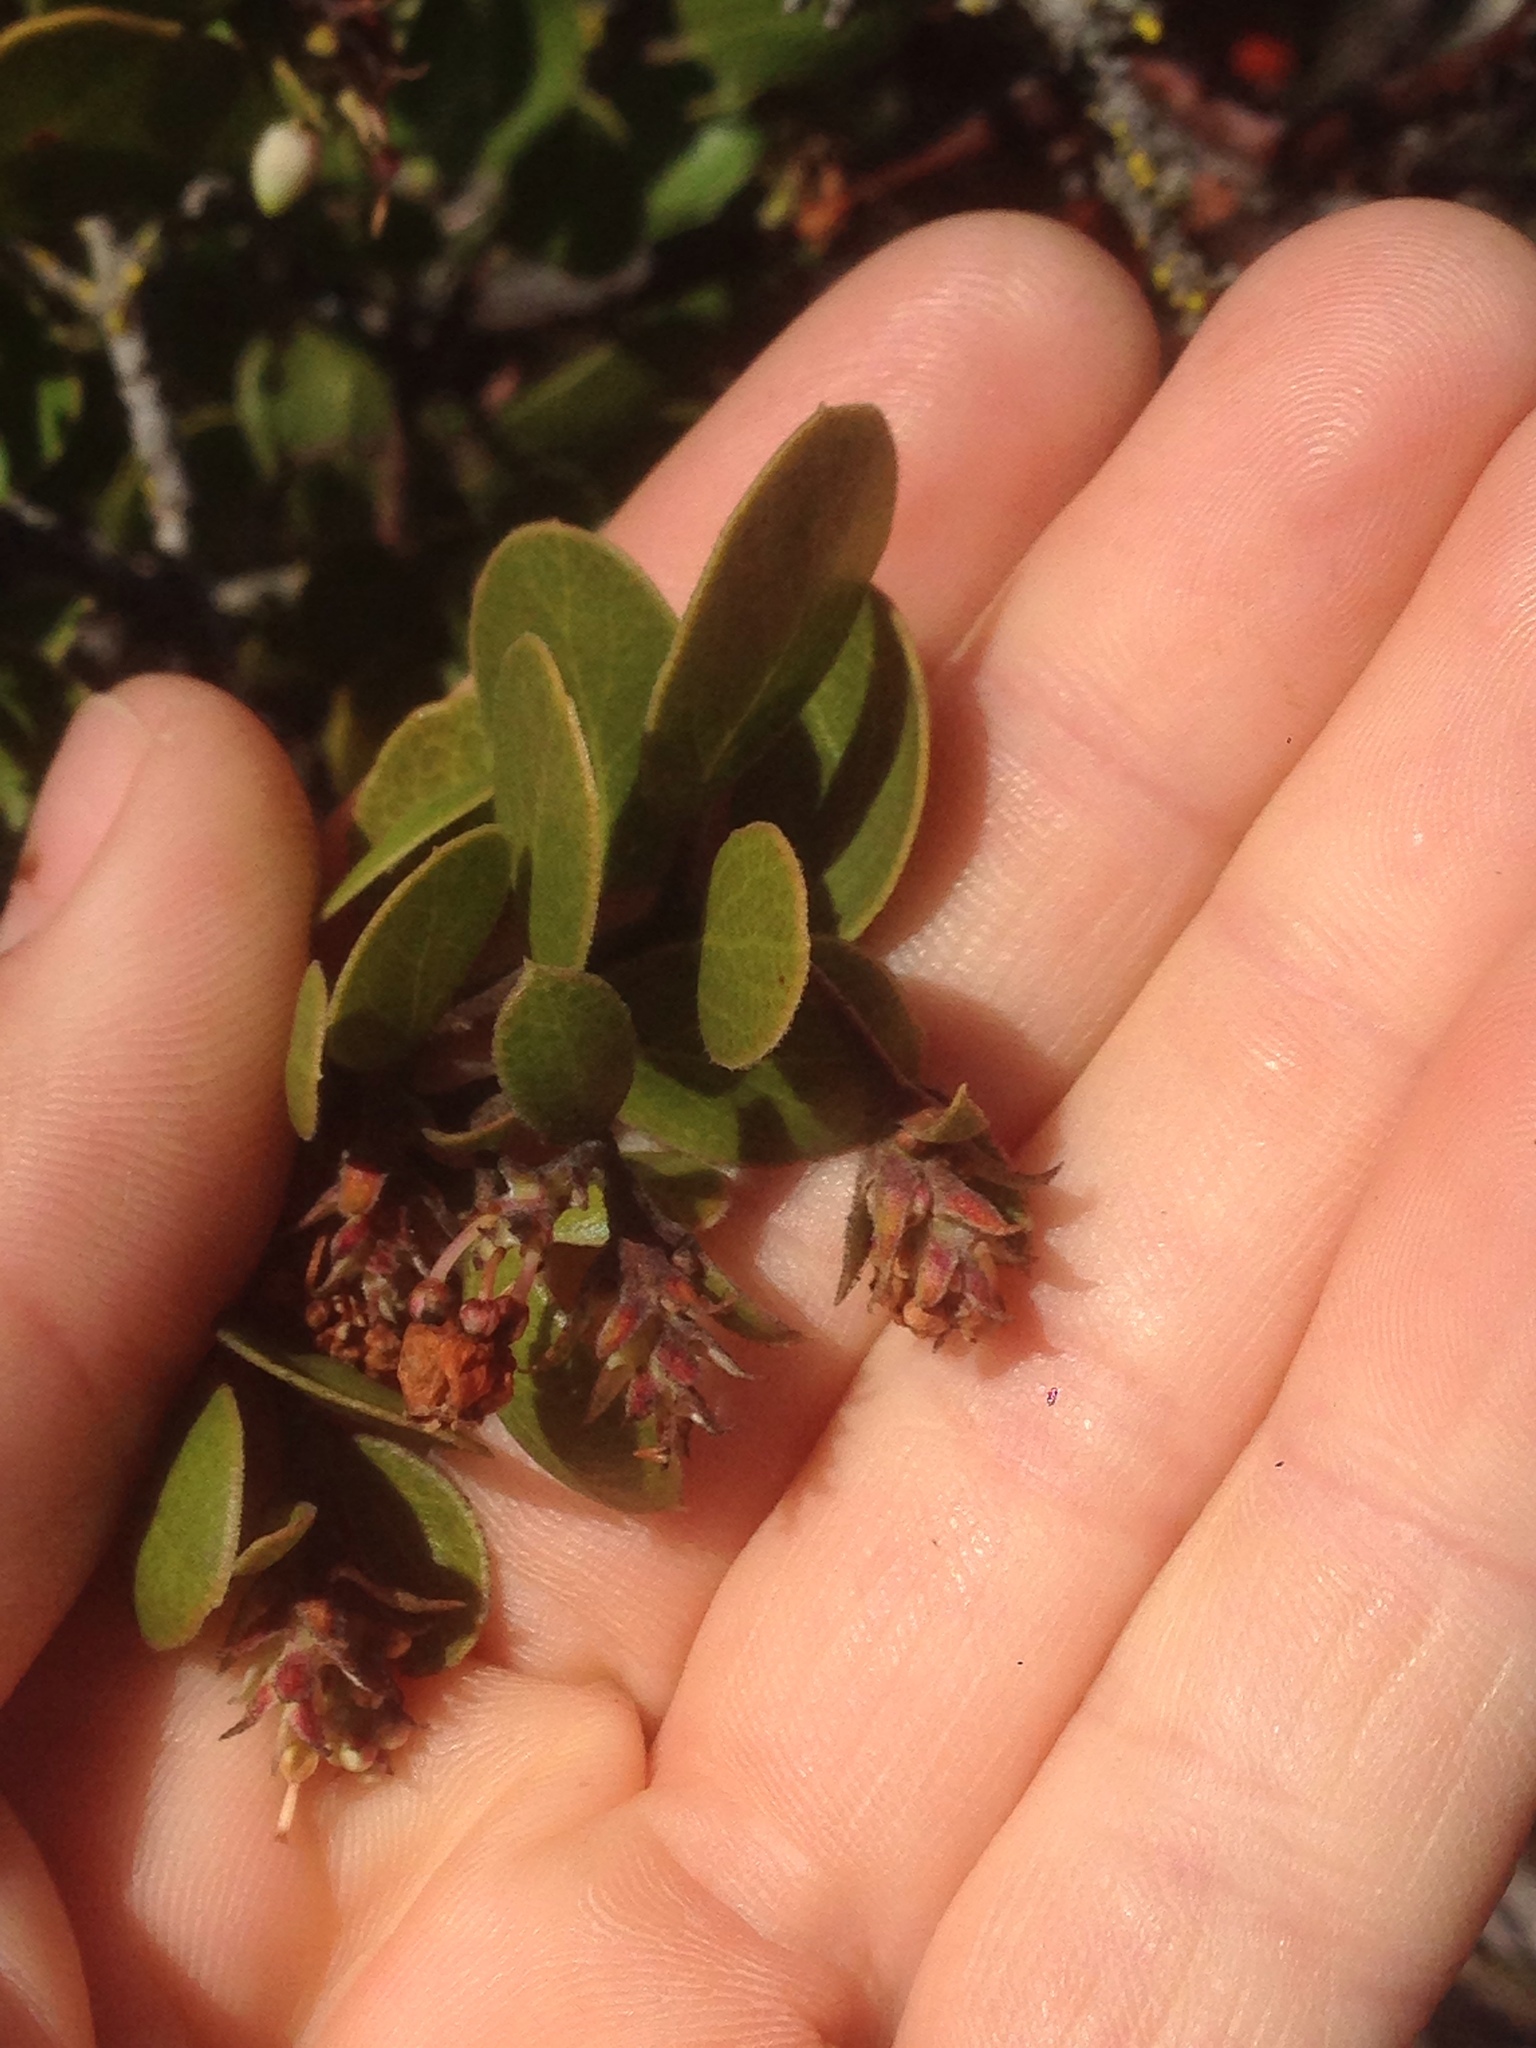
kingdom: Plantae
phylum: Tracheophyta
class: Magnoliopsida
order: Ericales
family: Ericaceae
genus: Arctostaphylos
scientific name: Arctostaphylos rudis
